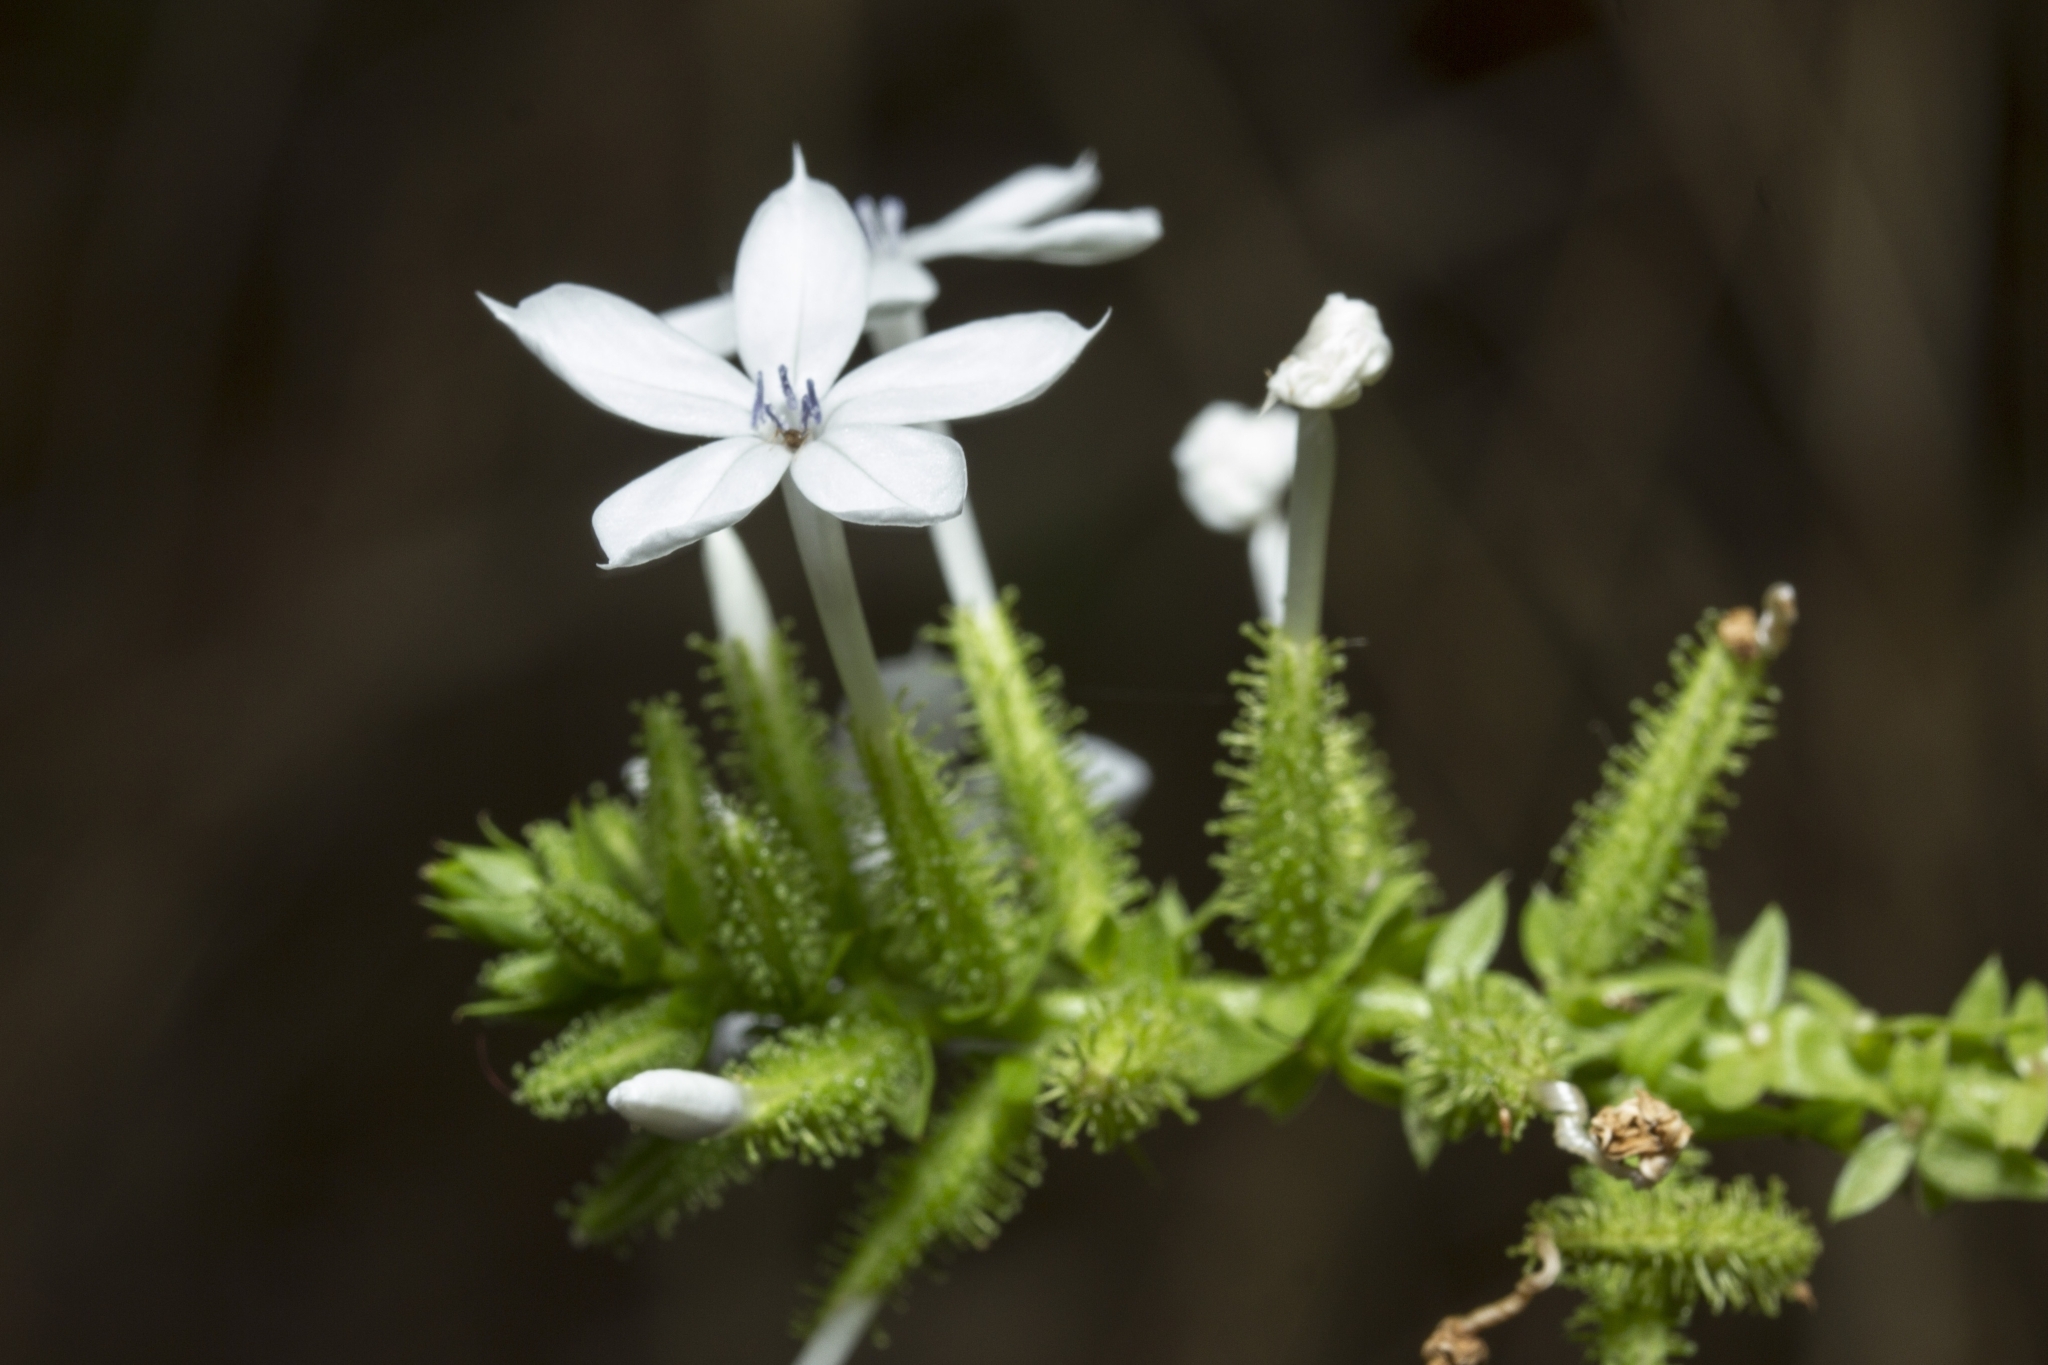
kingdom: Plantae
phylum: Tracheophyta
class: Magnoliopsida
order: Caryophyllales
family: Plumbaginaceae
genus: Plumbago
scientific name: Plumbago zeylanica
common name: Doctorbush
